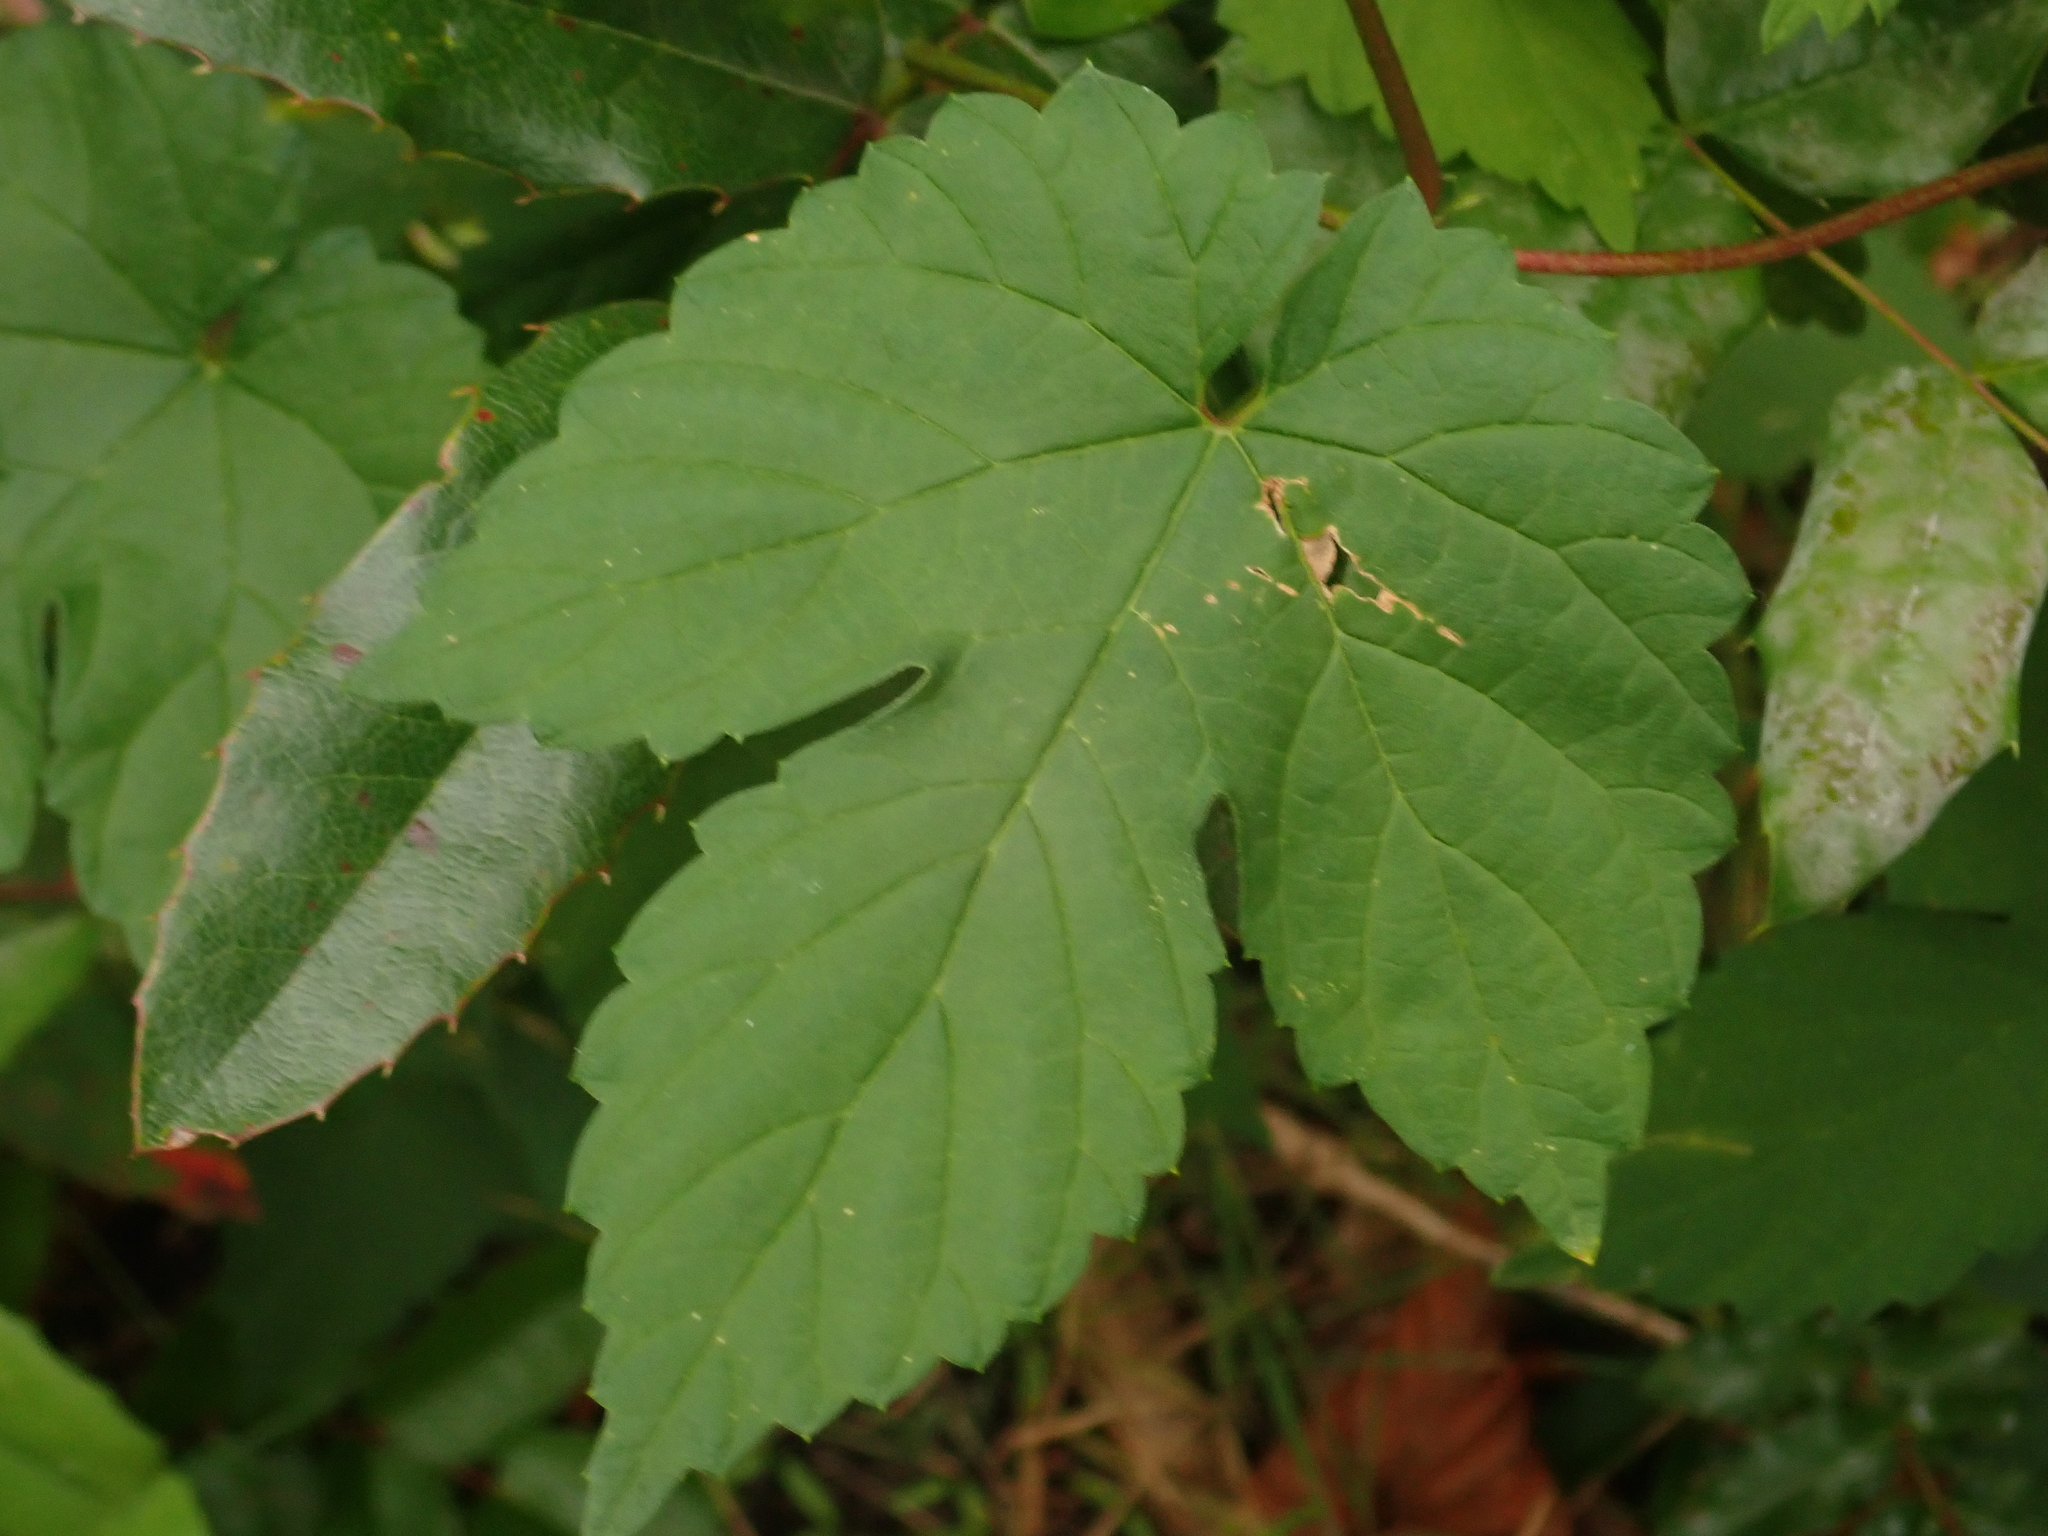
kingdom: Plantae
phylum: Tracheophyta
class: Magnoliopsida
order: Rosales
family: Cannabaceae
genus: Humulus
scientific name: Humulus lupulus
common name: Hop
